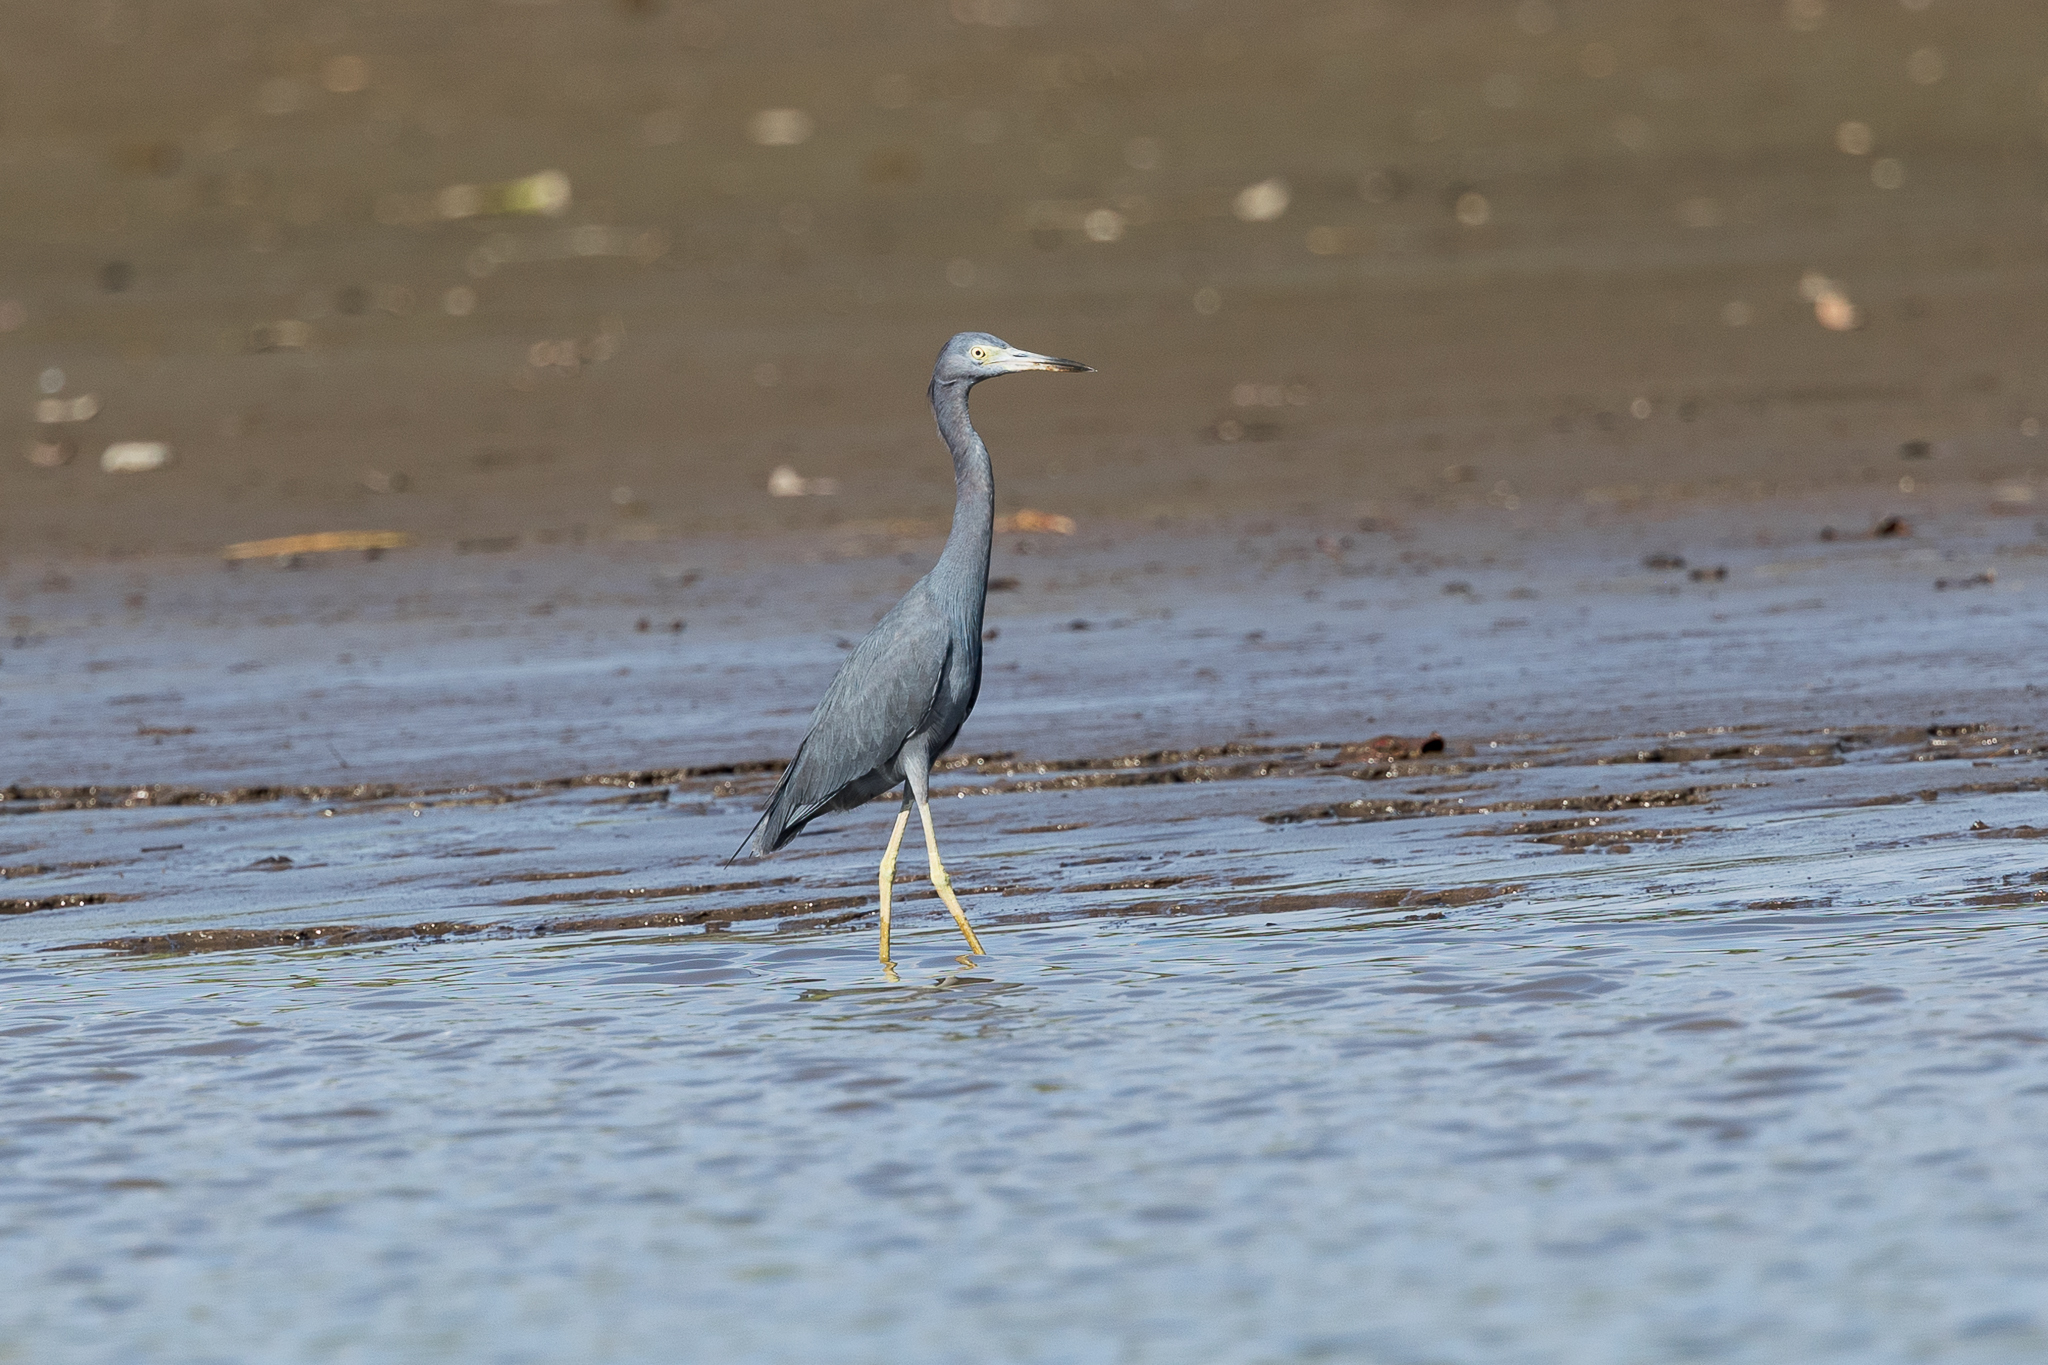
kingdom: Animalia
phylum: Chordata
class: Aves
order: Pelecaniformes
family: Ardeidae
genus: Egretta
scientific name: Egretta caerulea
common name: Little blue heron
